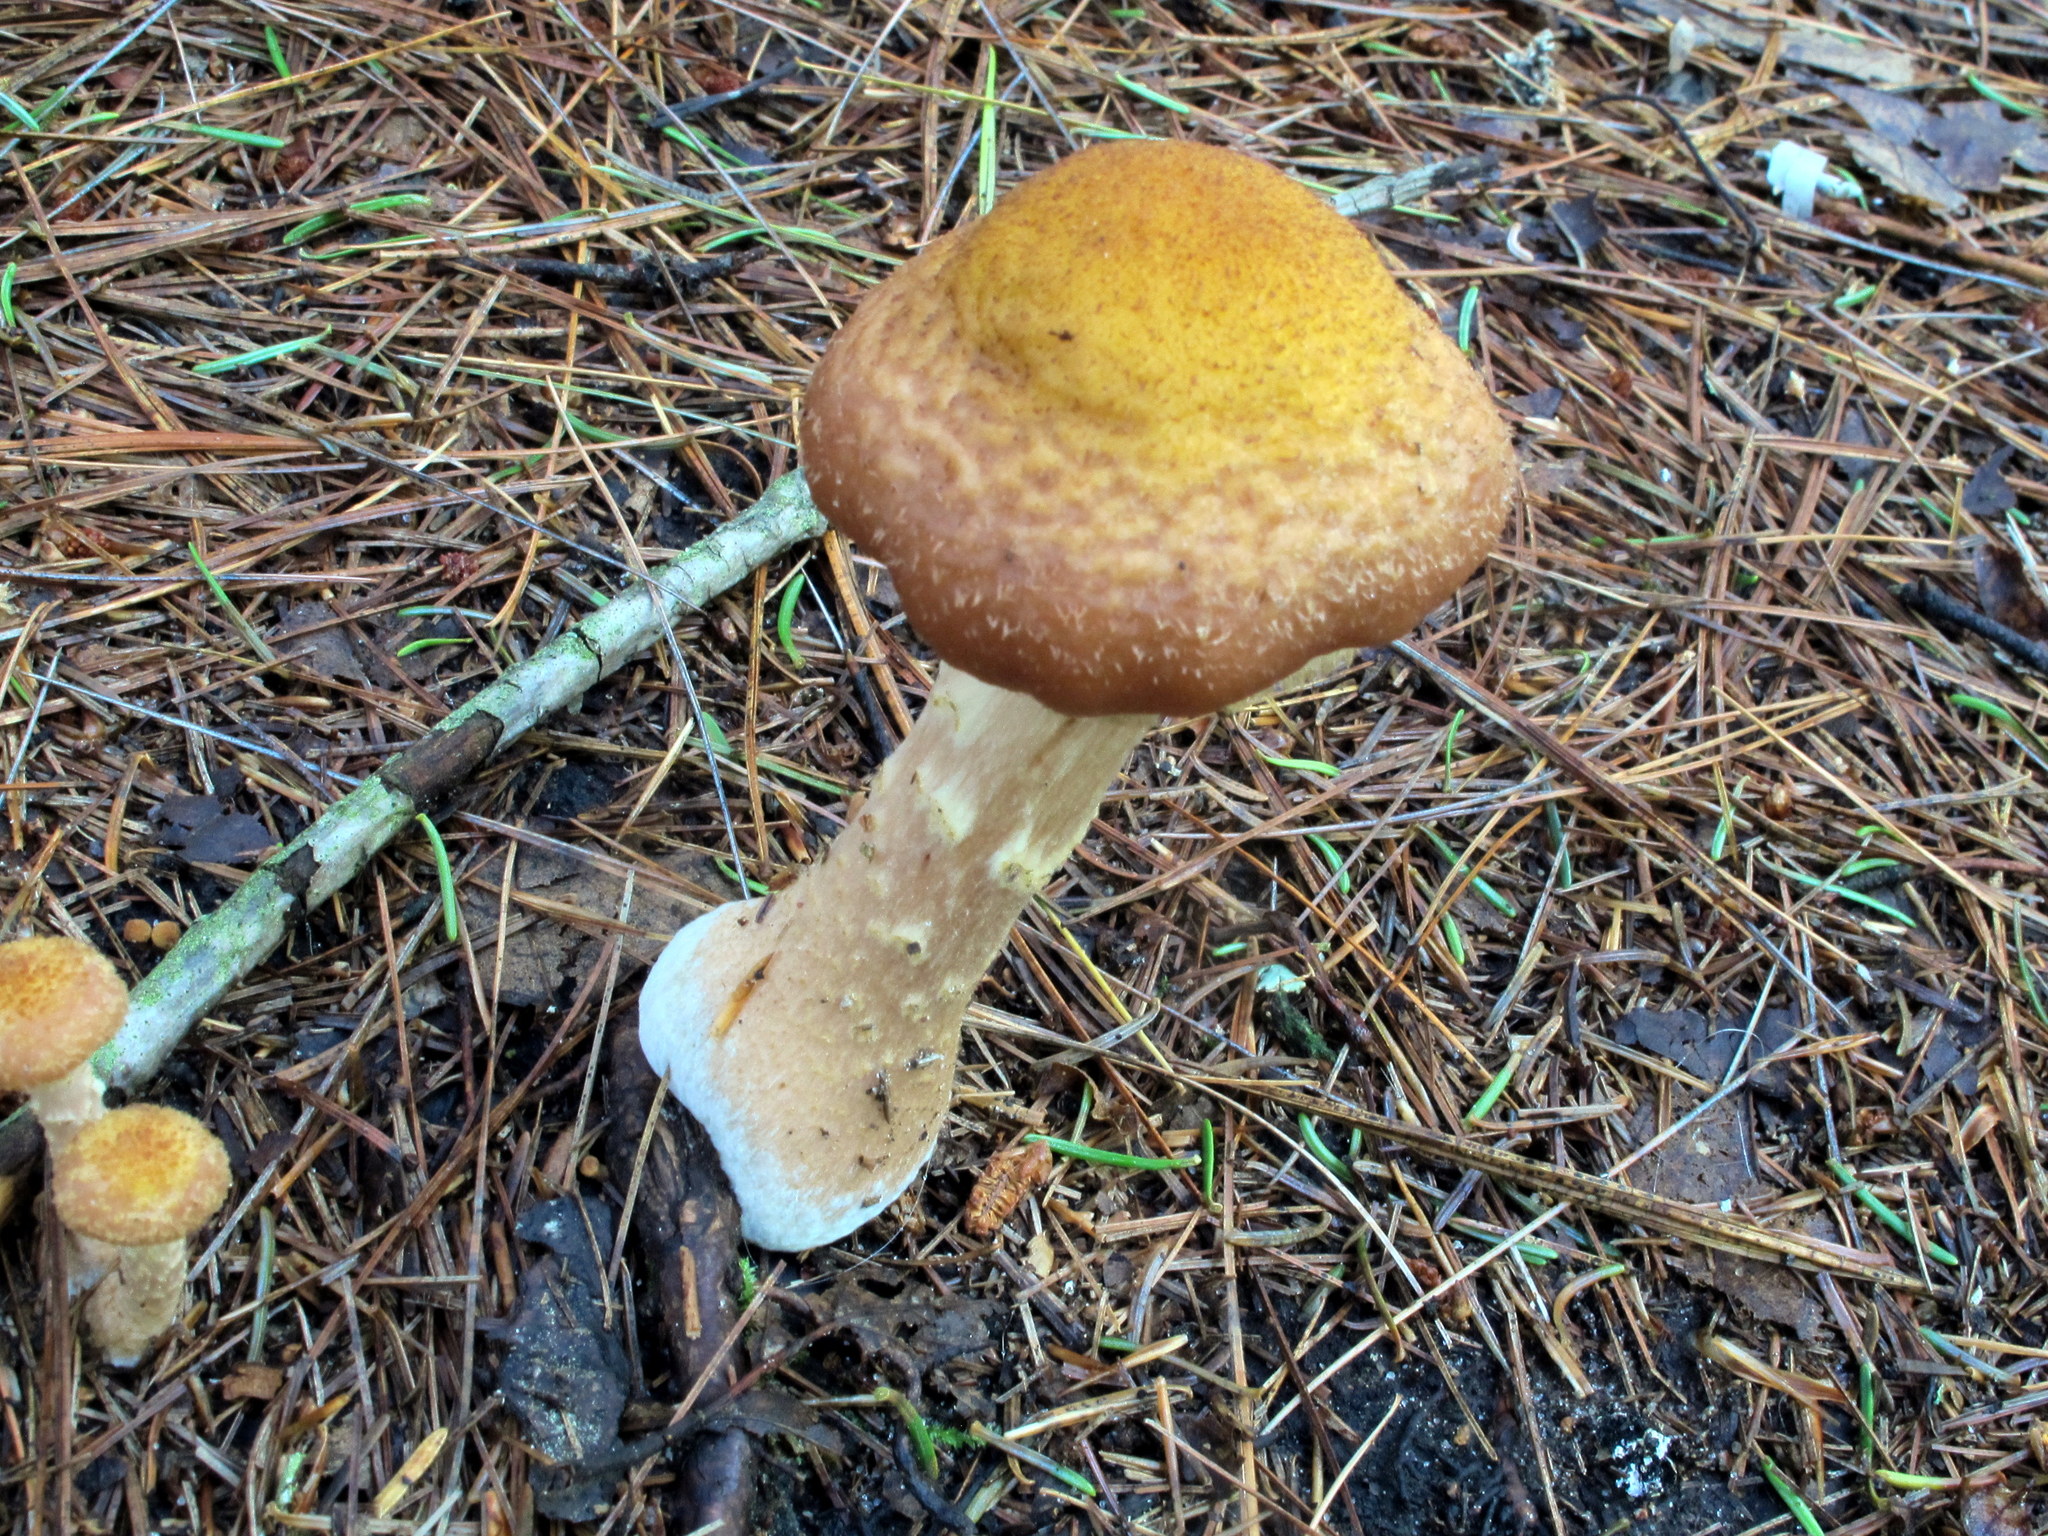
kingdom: Fungi
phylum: Basidiomycota
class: Agaricomycetes
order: Agaricales
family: Physalacriaceae
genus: Armillaria
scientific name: Armillaria ostoyae
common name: Dark honey fungus
